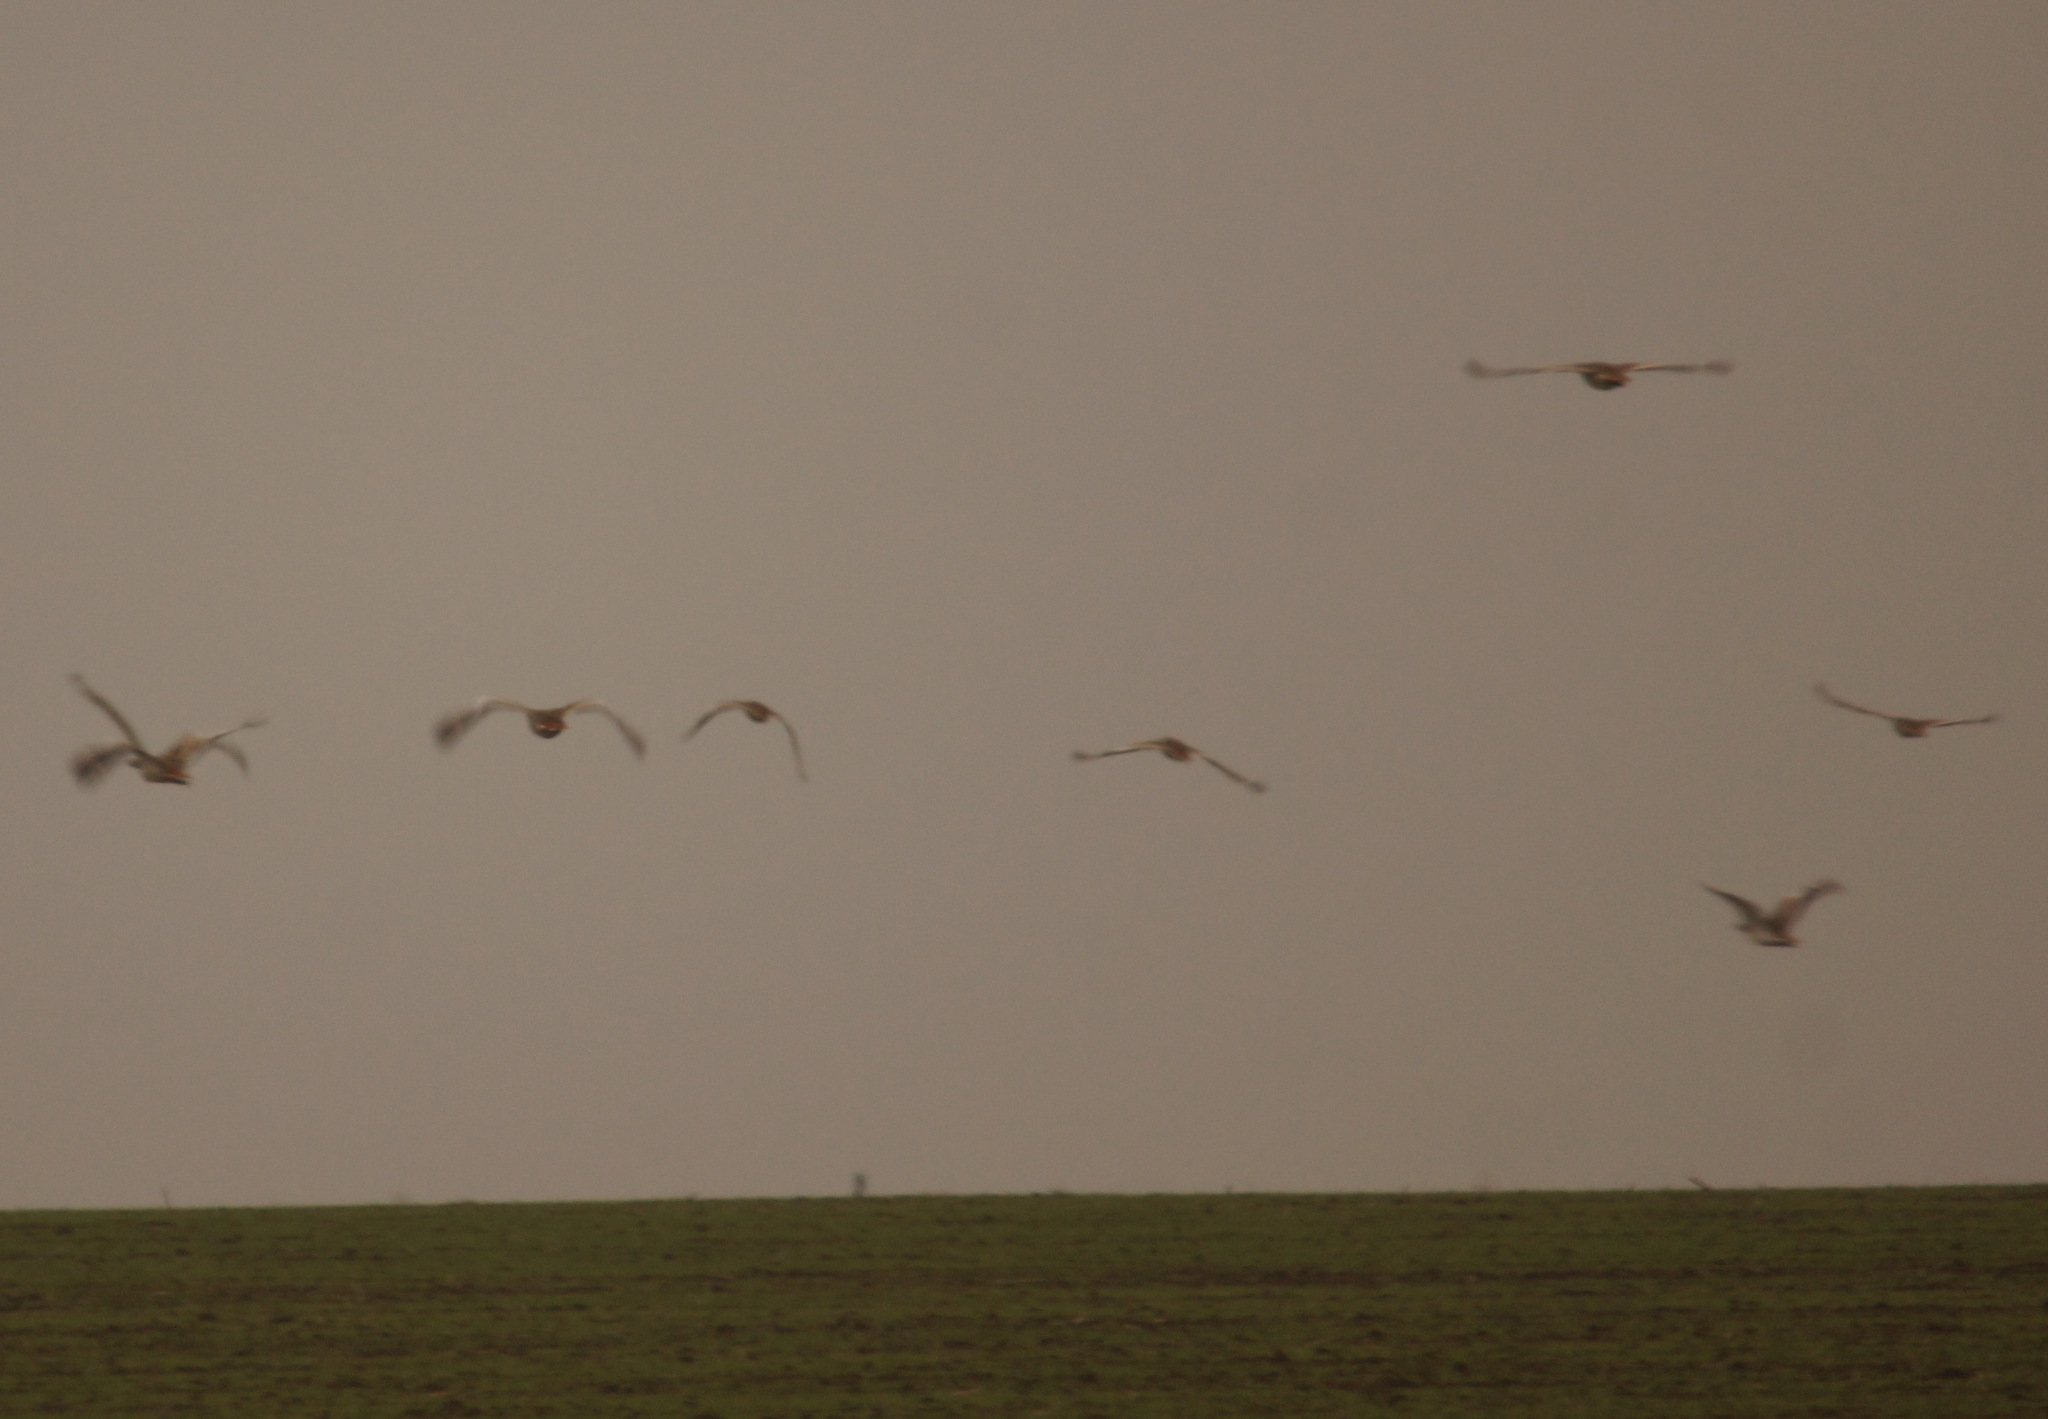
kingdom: Animalia
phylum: Chordata
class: Aves
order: Otidiformes
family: Otididae
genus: Otis
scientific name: Otis tarda
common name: Great bustard
